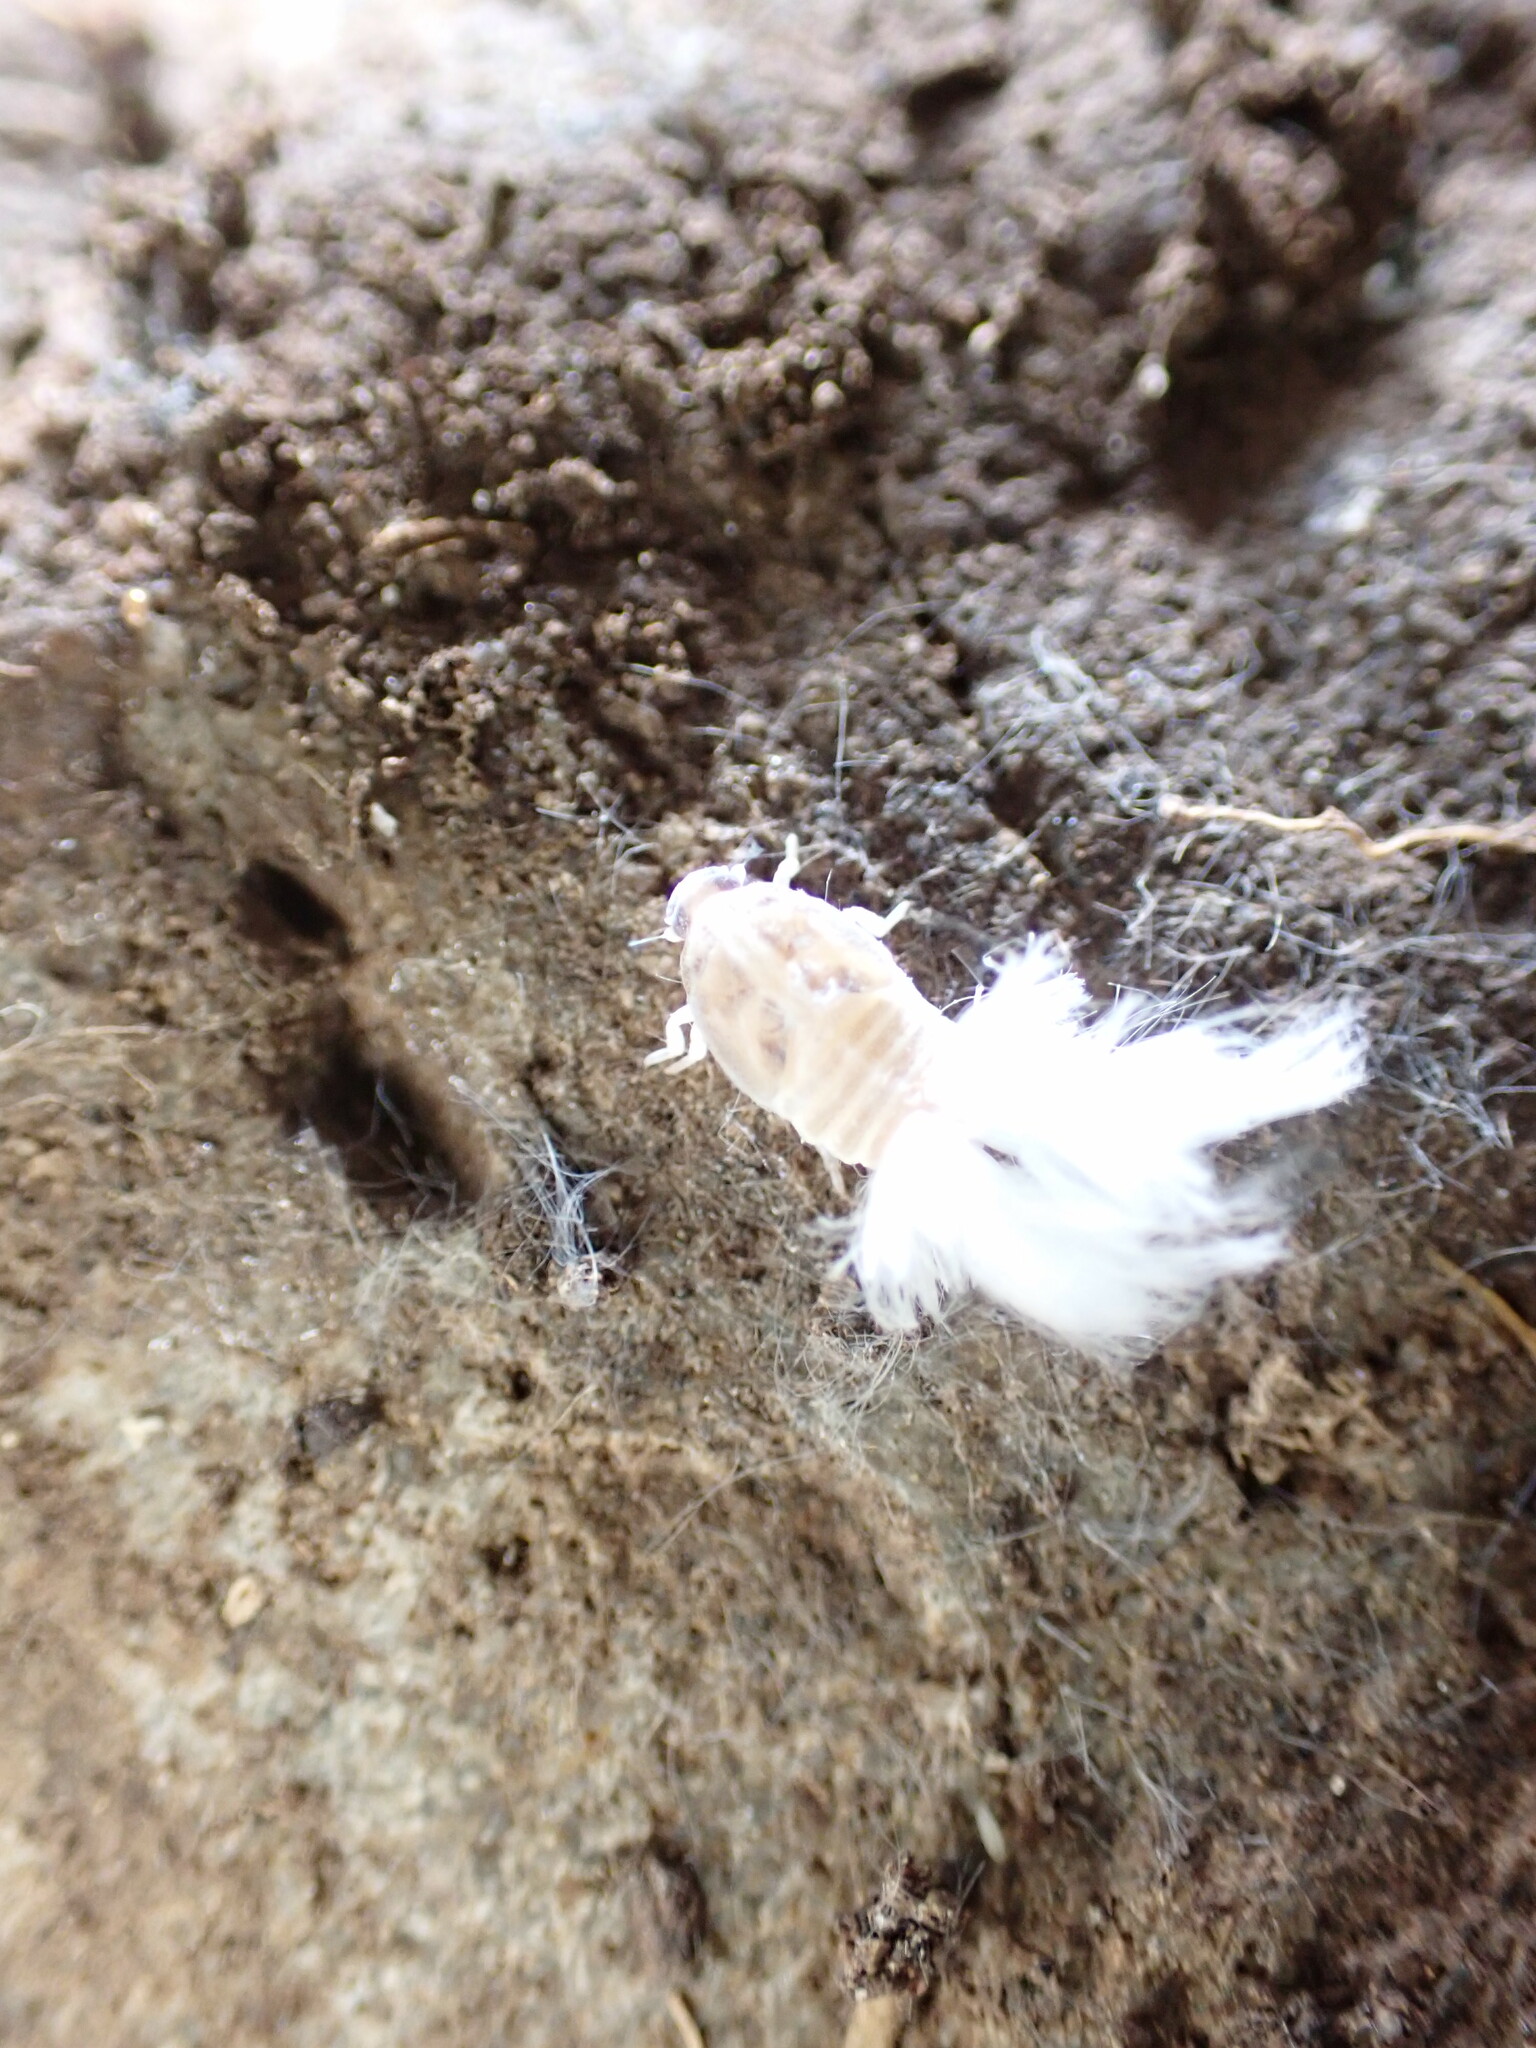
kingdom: Animalia
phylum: Arthropoda
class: Insecta
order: Hemiptera
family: Ricaniidae
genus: Scolypopa
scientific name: Scolypopa australis
